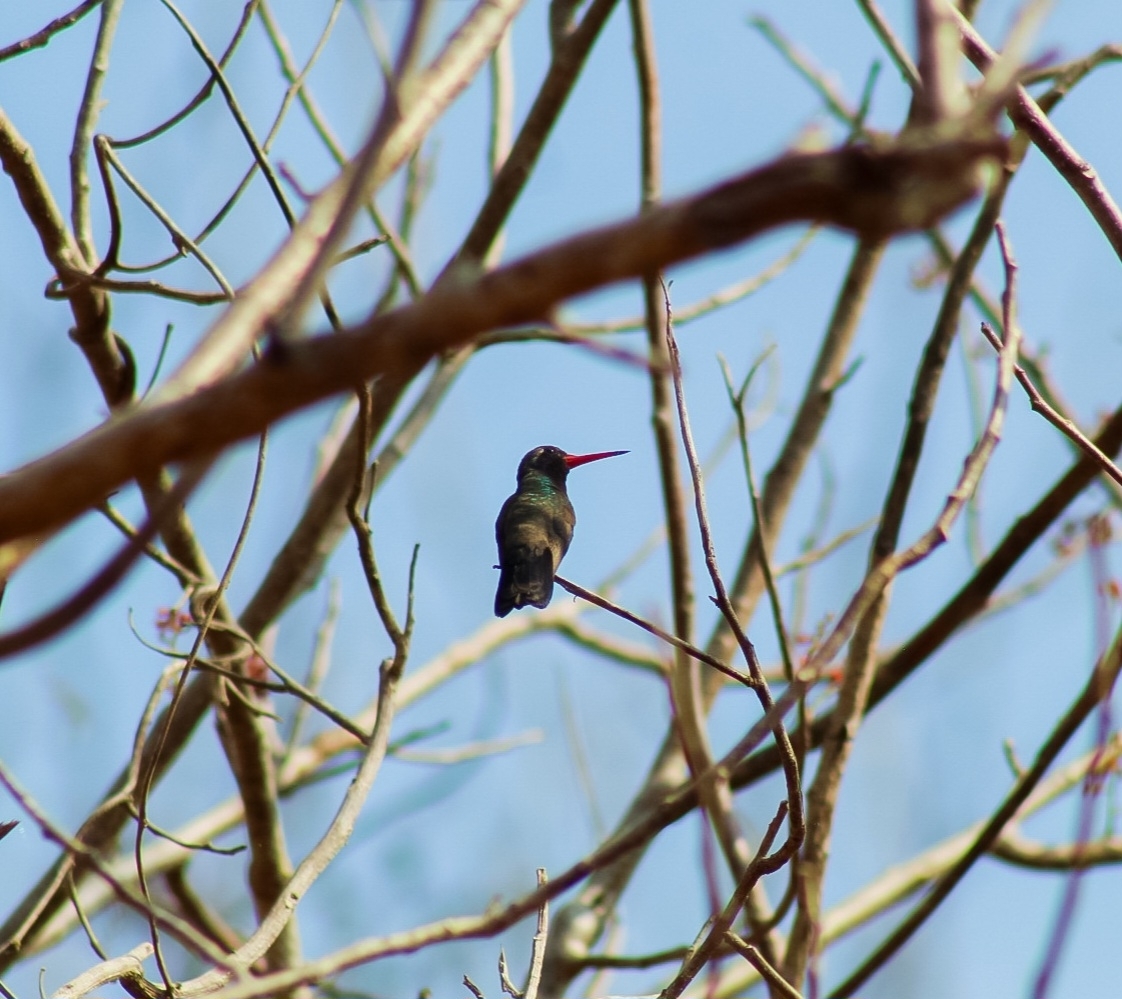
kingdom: Animalia
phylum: Chordata
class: Aves
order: Apodiformes
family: Trochilidae
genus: Cynanthus
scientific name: Cynanthus doubledayi
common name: Doubleday's hummingbird
